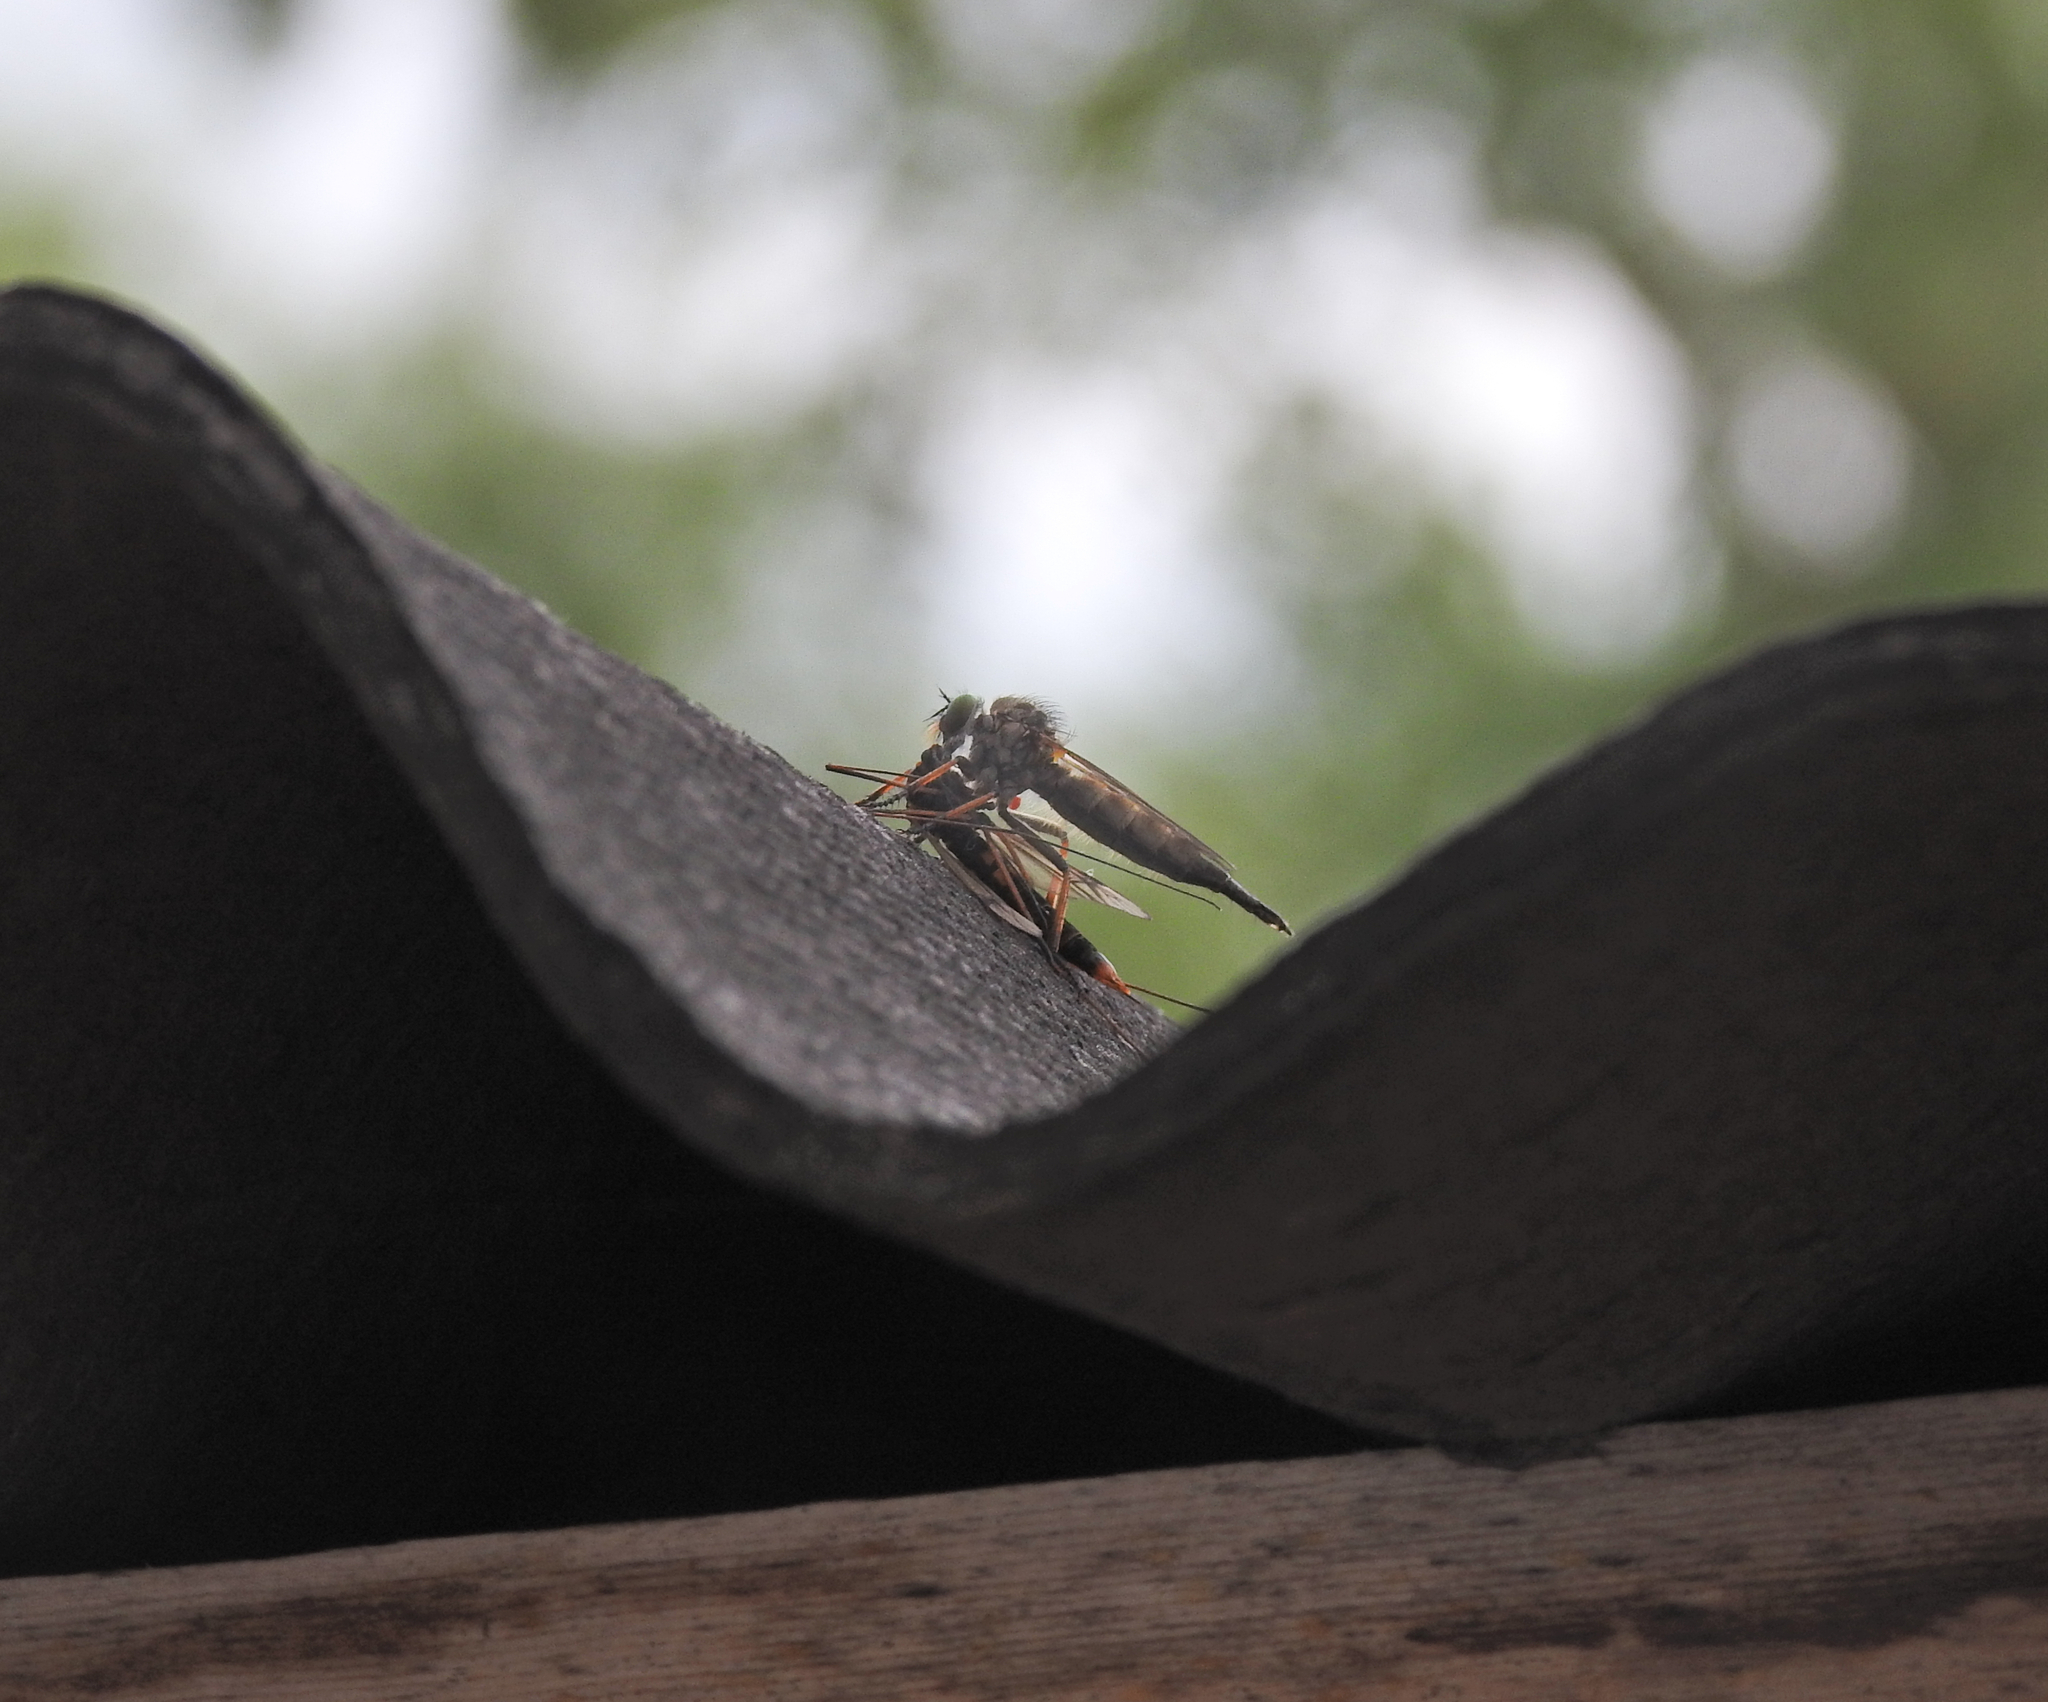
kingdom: Animalia
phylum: Arthropoda
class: Insecta
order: Diptera
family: Asilidae
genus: Neoitamus
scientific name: Neoitamus
